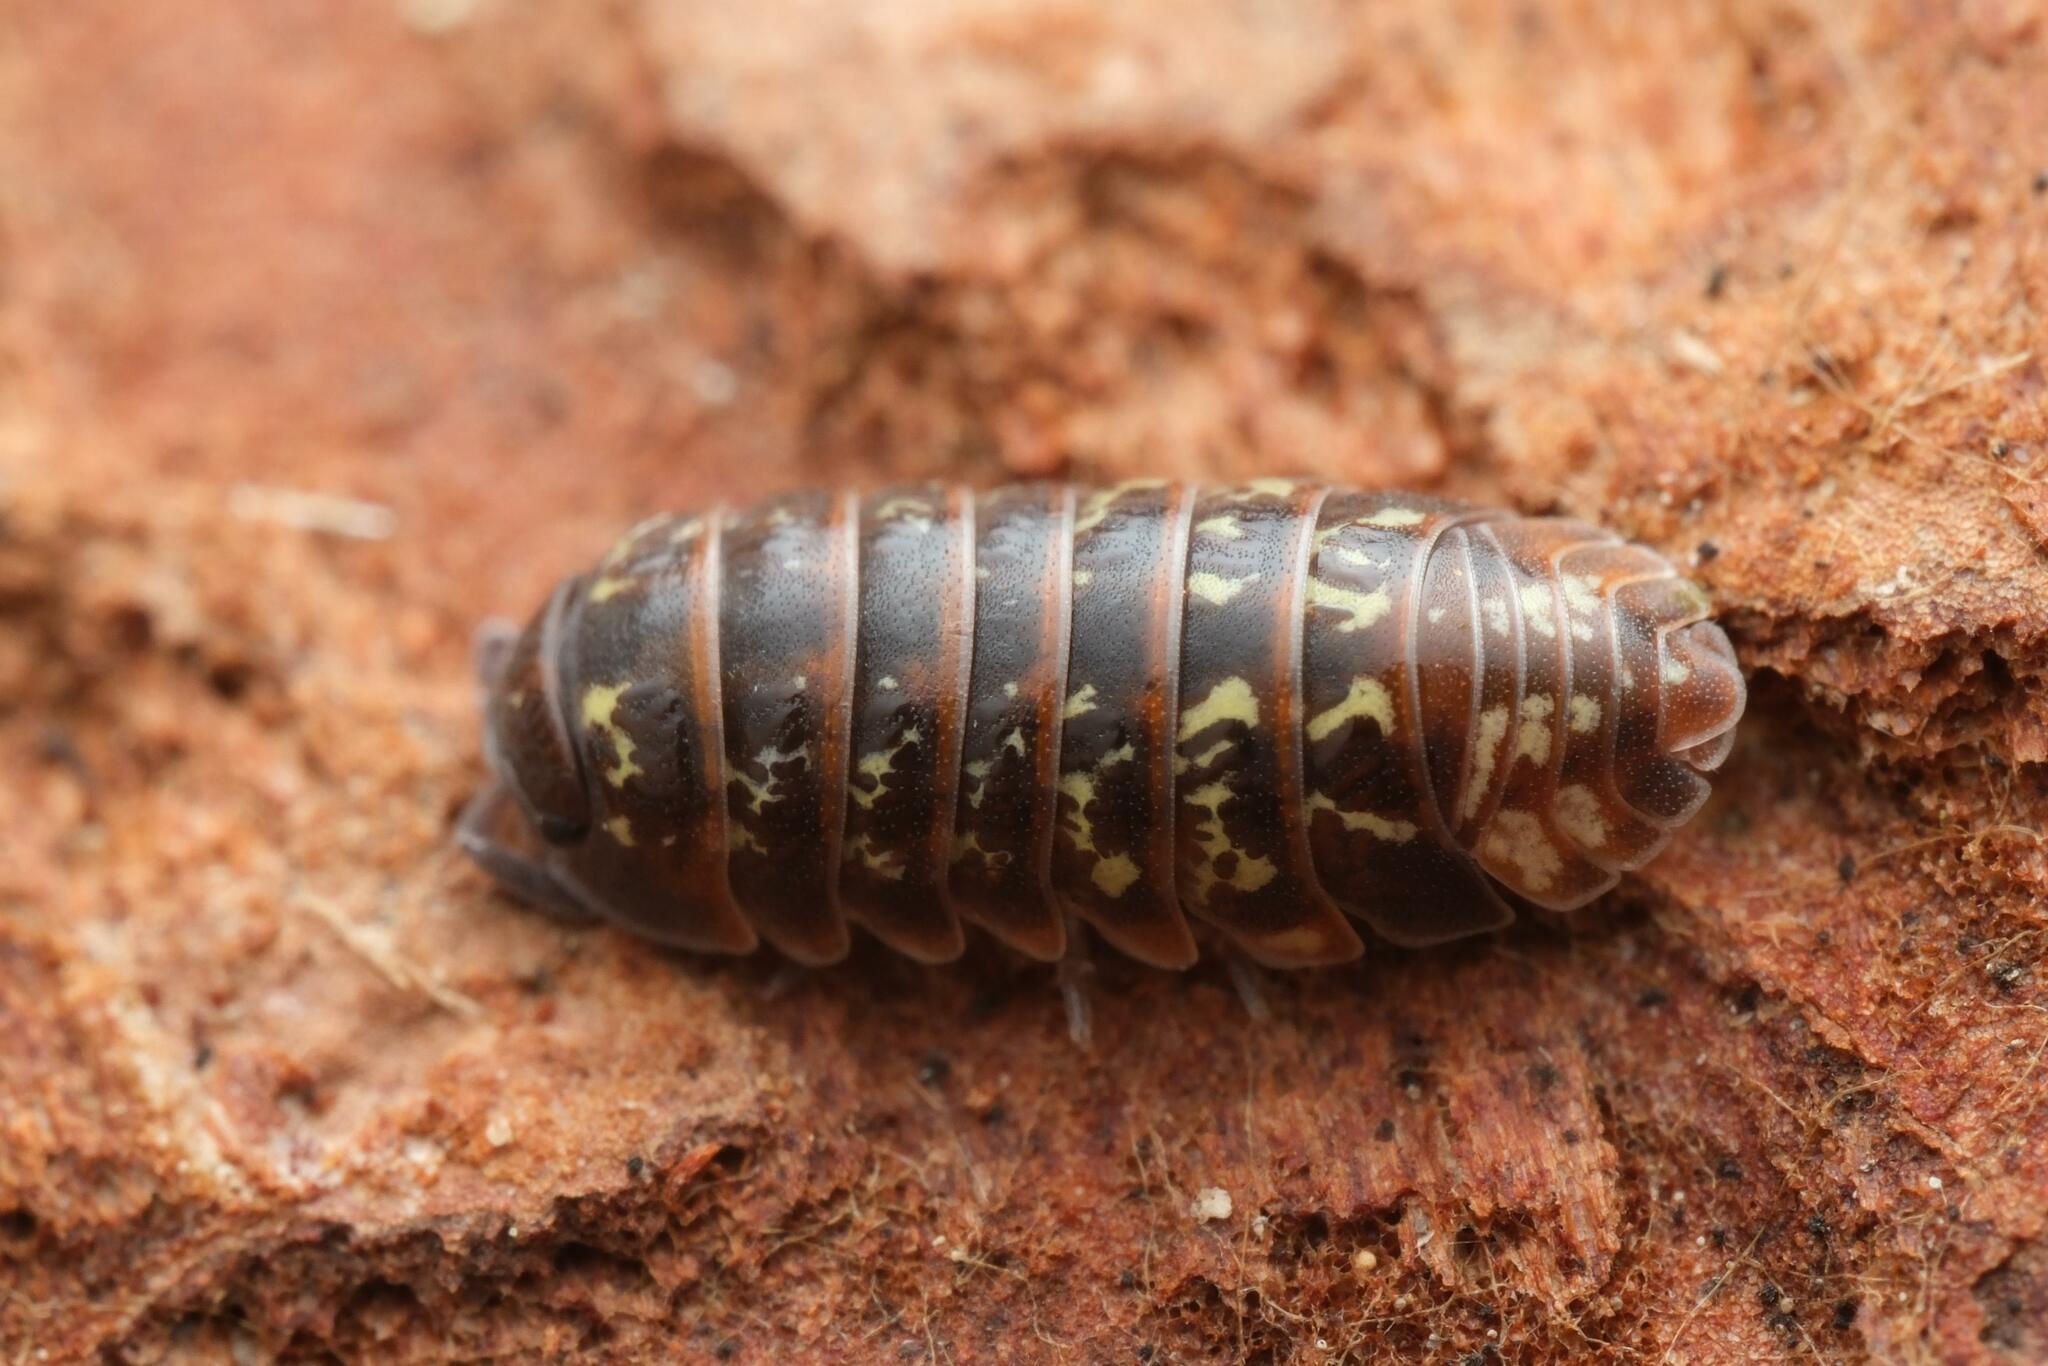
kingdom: Animalia
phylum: Arthropoda
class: Malacostraca
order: Isopoda
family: Armadillidiidae
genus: Armadillidium
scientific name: Armadillidium pulchellum
